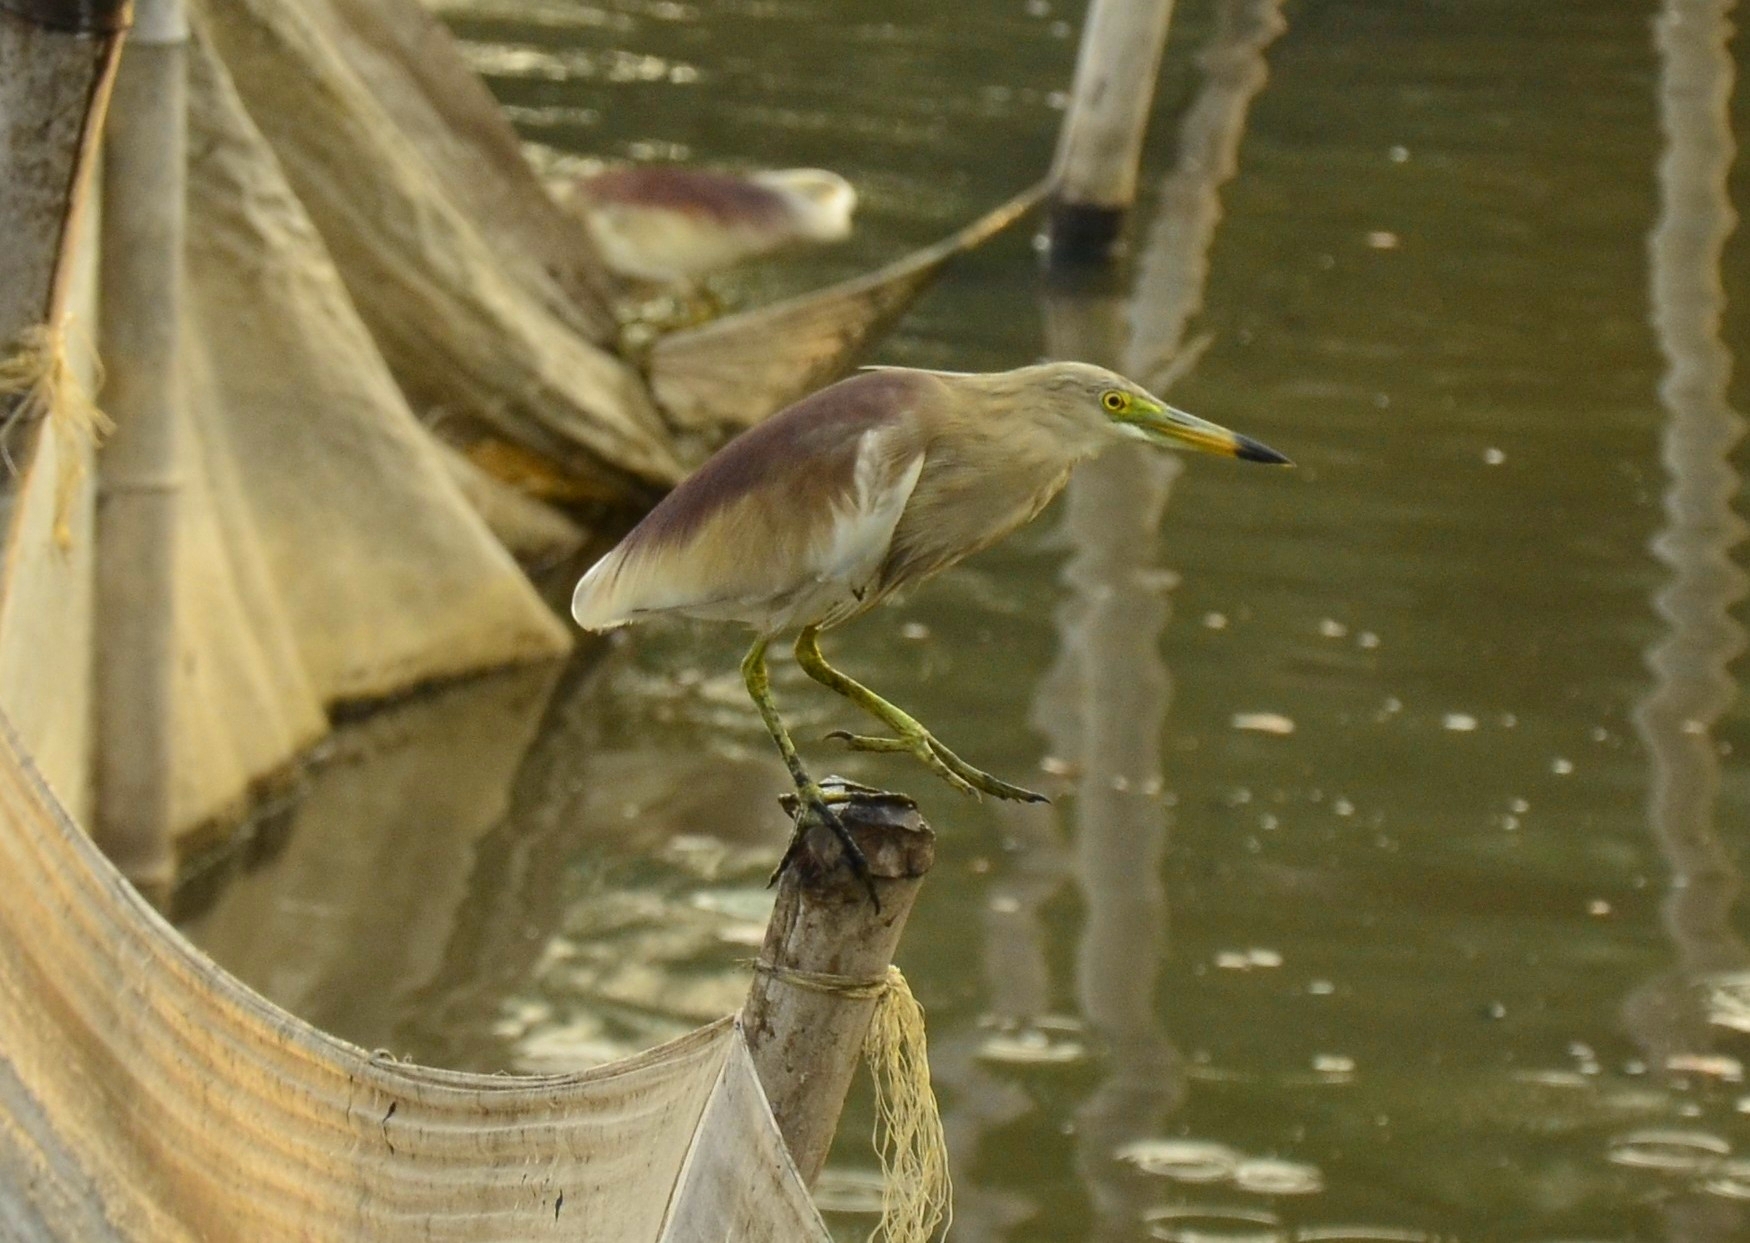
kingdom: Animalia
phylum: Chordata
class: Aves
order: Pelecaniformes
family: Ardeidae
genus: Ardeola
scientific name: Ardeola grayii
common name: Indian pond heron
